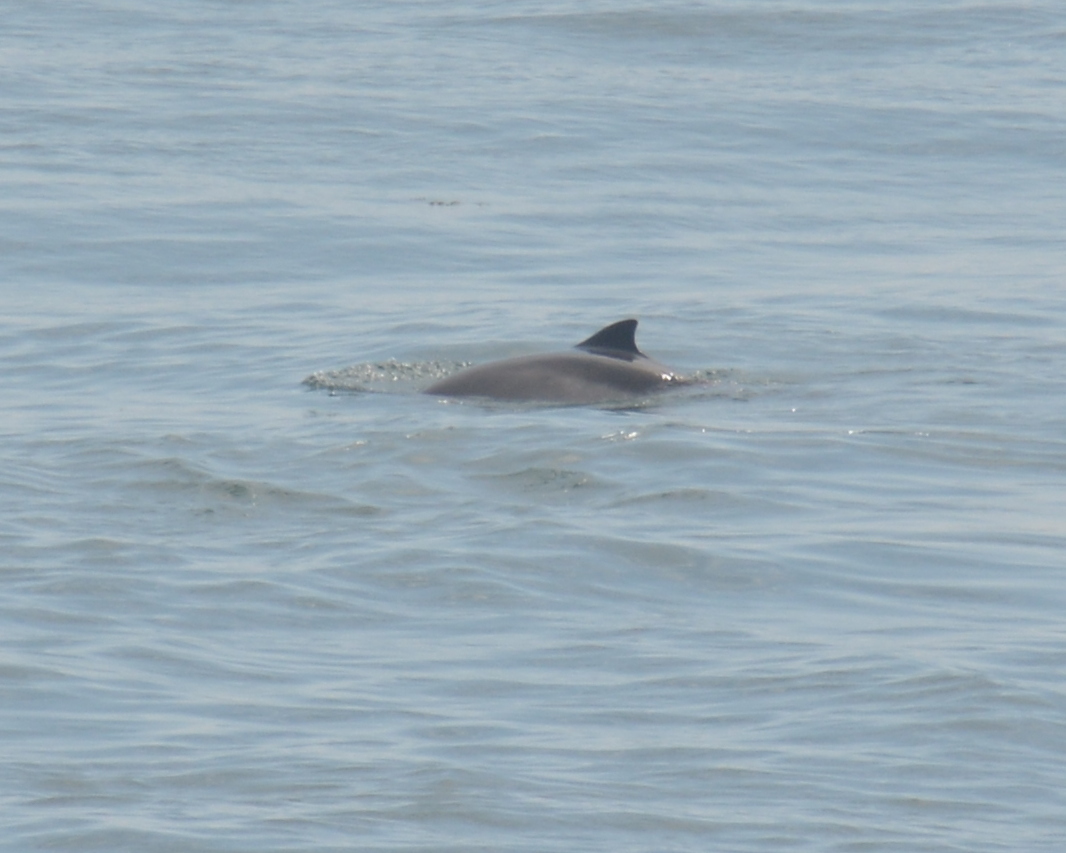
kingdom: Animalia
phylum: Chordata
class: Mammalia
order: Cetacea
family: Phocoenidae
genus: Phocoena
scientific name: Phocoena phocoena
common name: Harbor porpoise
